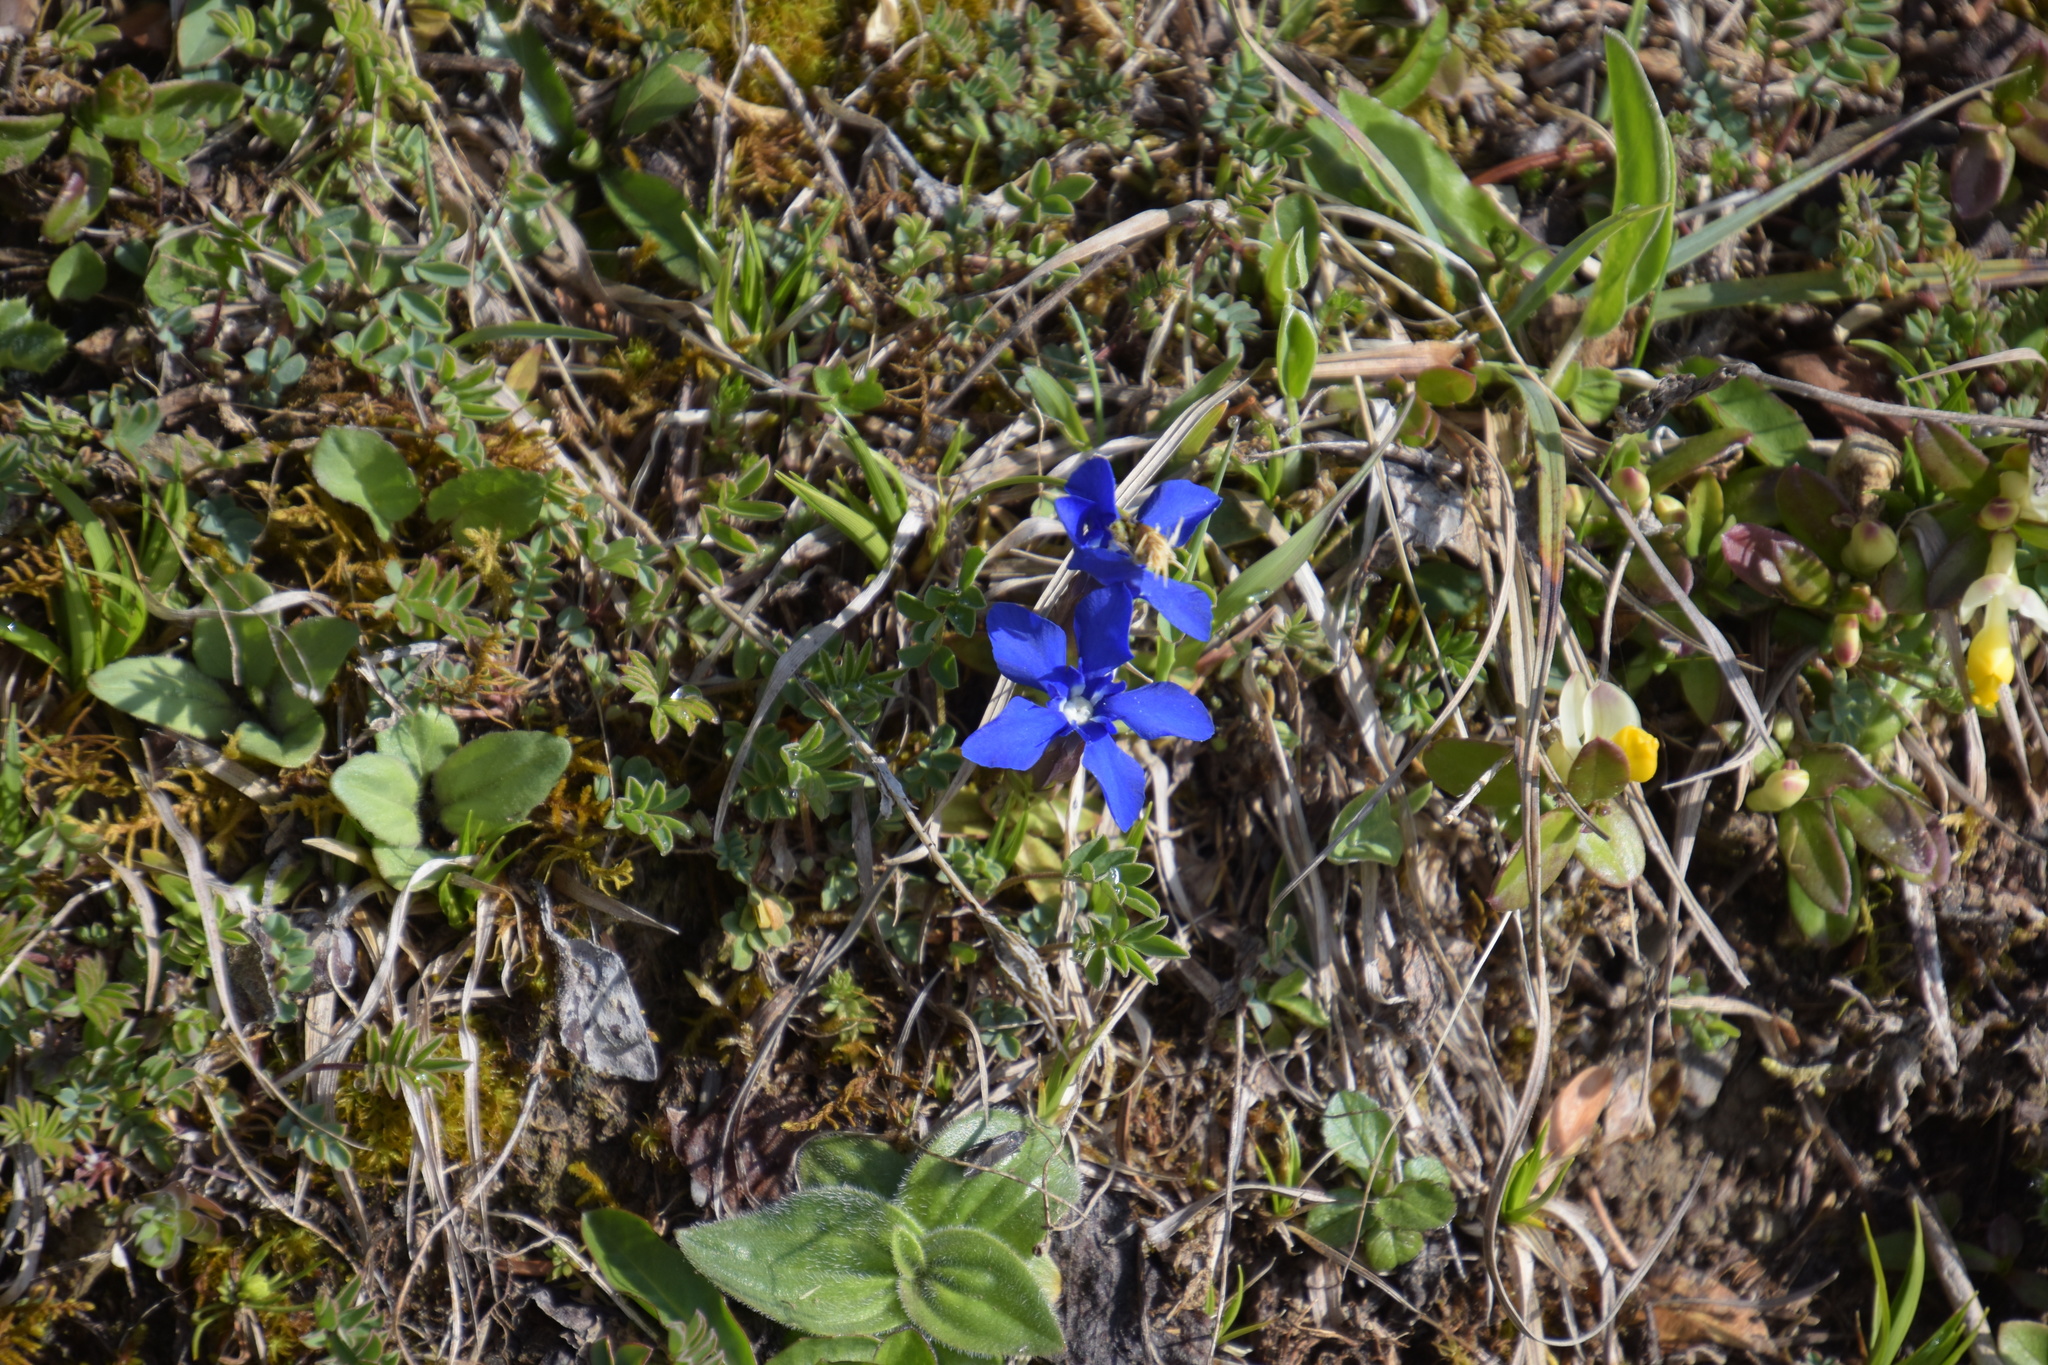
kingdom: Plantae
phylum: Tracheophyta
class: Magnoliopsida
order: Gentianales
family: Gentianaceae
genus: Gentiana
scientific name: Gentiana verna
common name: Spring gentian
